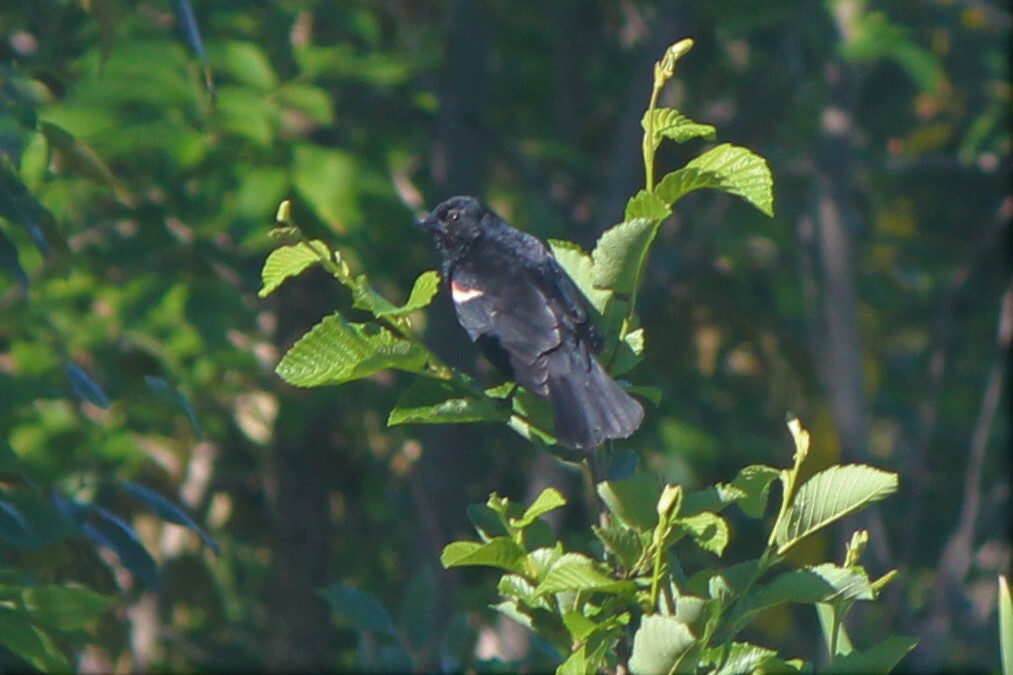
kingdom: Animalia
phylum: Chordata
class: Aves
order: Passeriformes
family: Icteridae
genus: Agelaius
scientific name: Agelaius phoeniceus
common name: Red-winged blackbird
